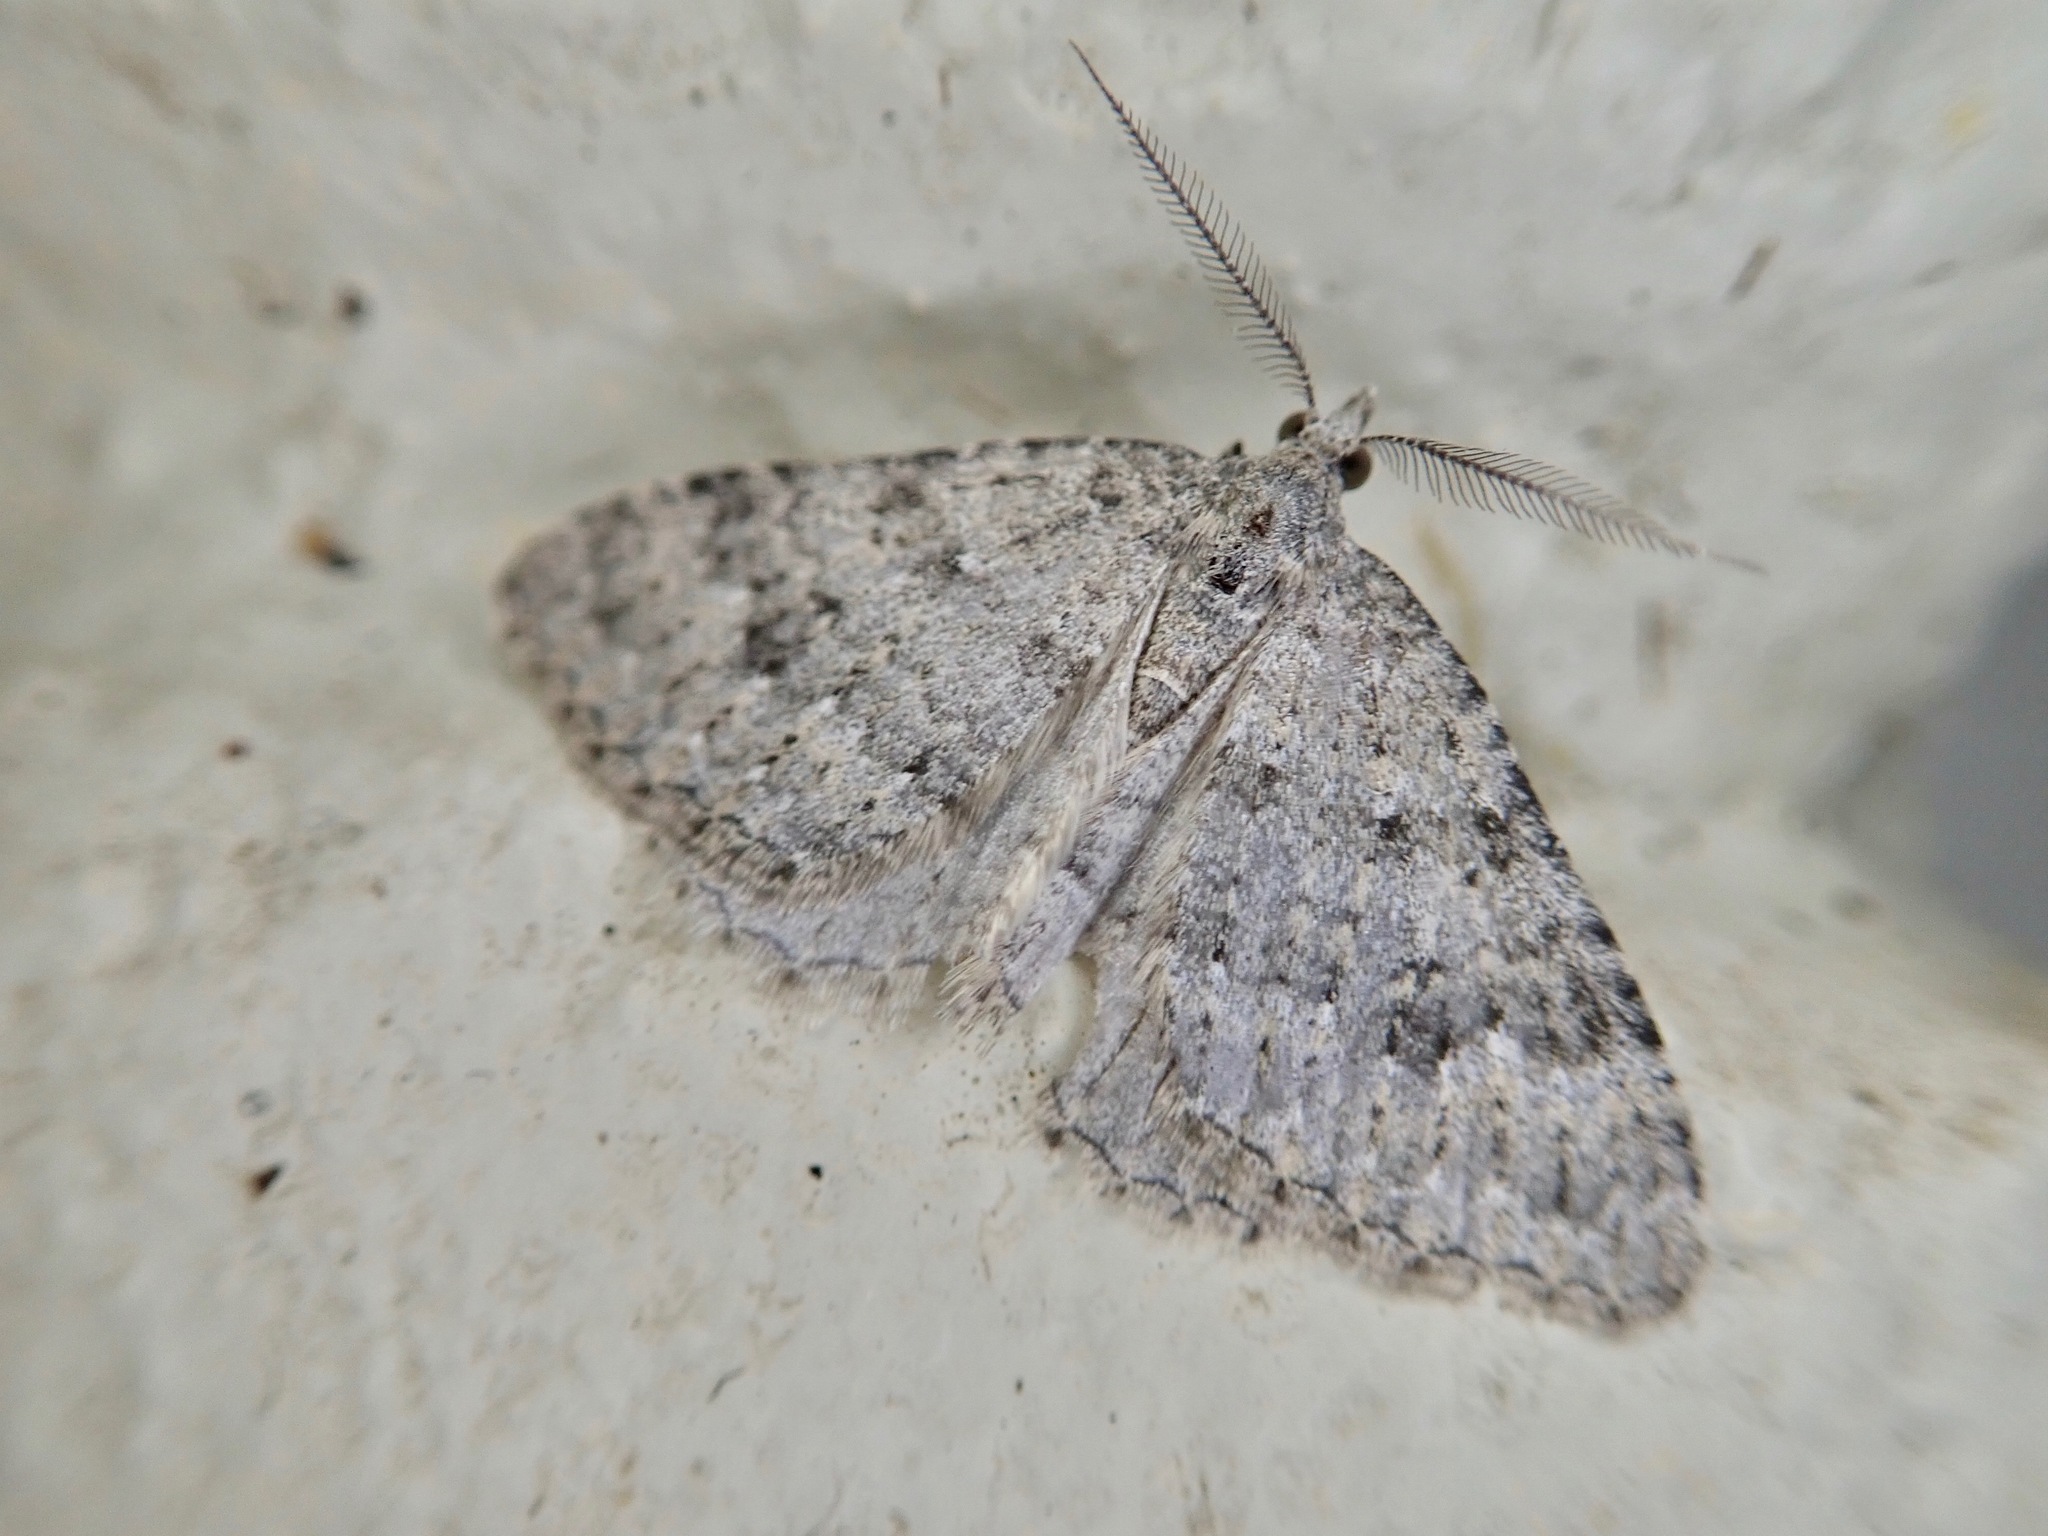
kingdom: Animalia
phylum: Arthropoda
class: Insecta
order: Lepidoptera
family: Geometridae
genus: Helastia
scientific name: Helastia corcularia
